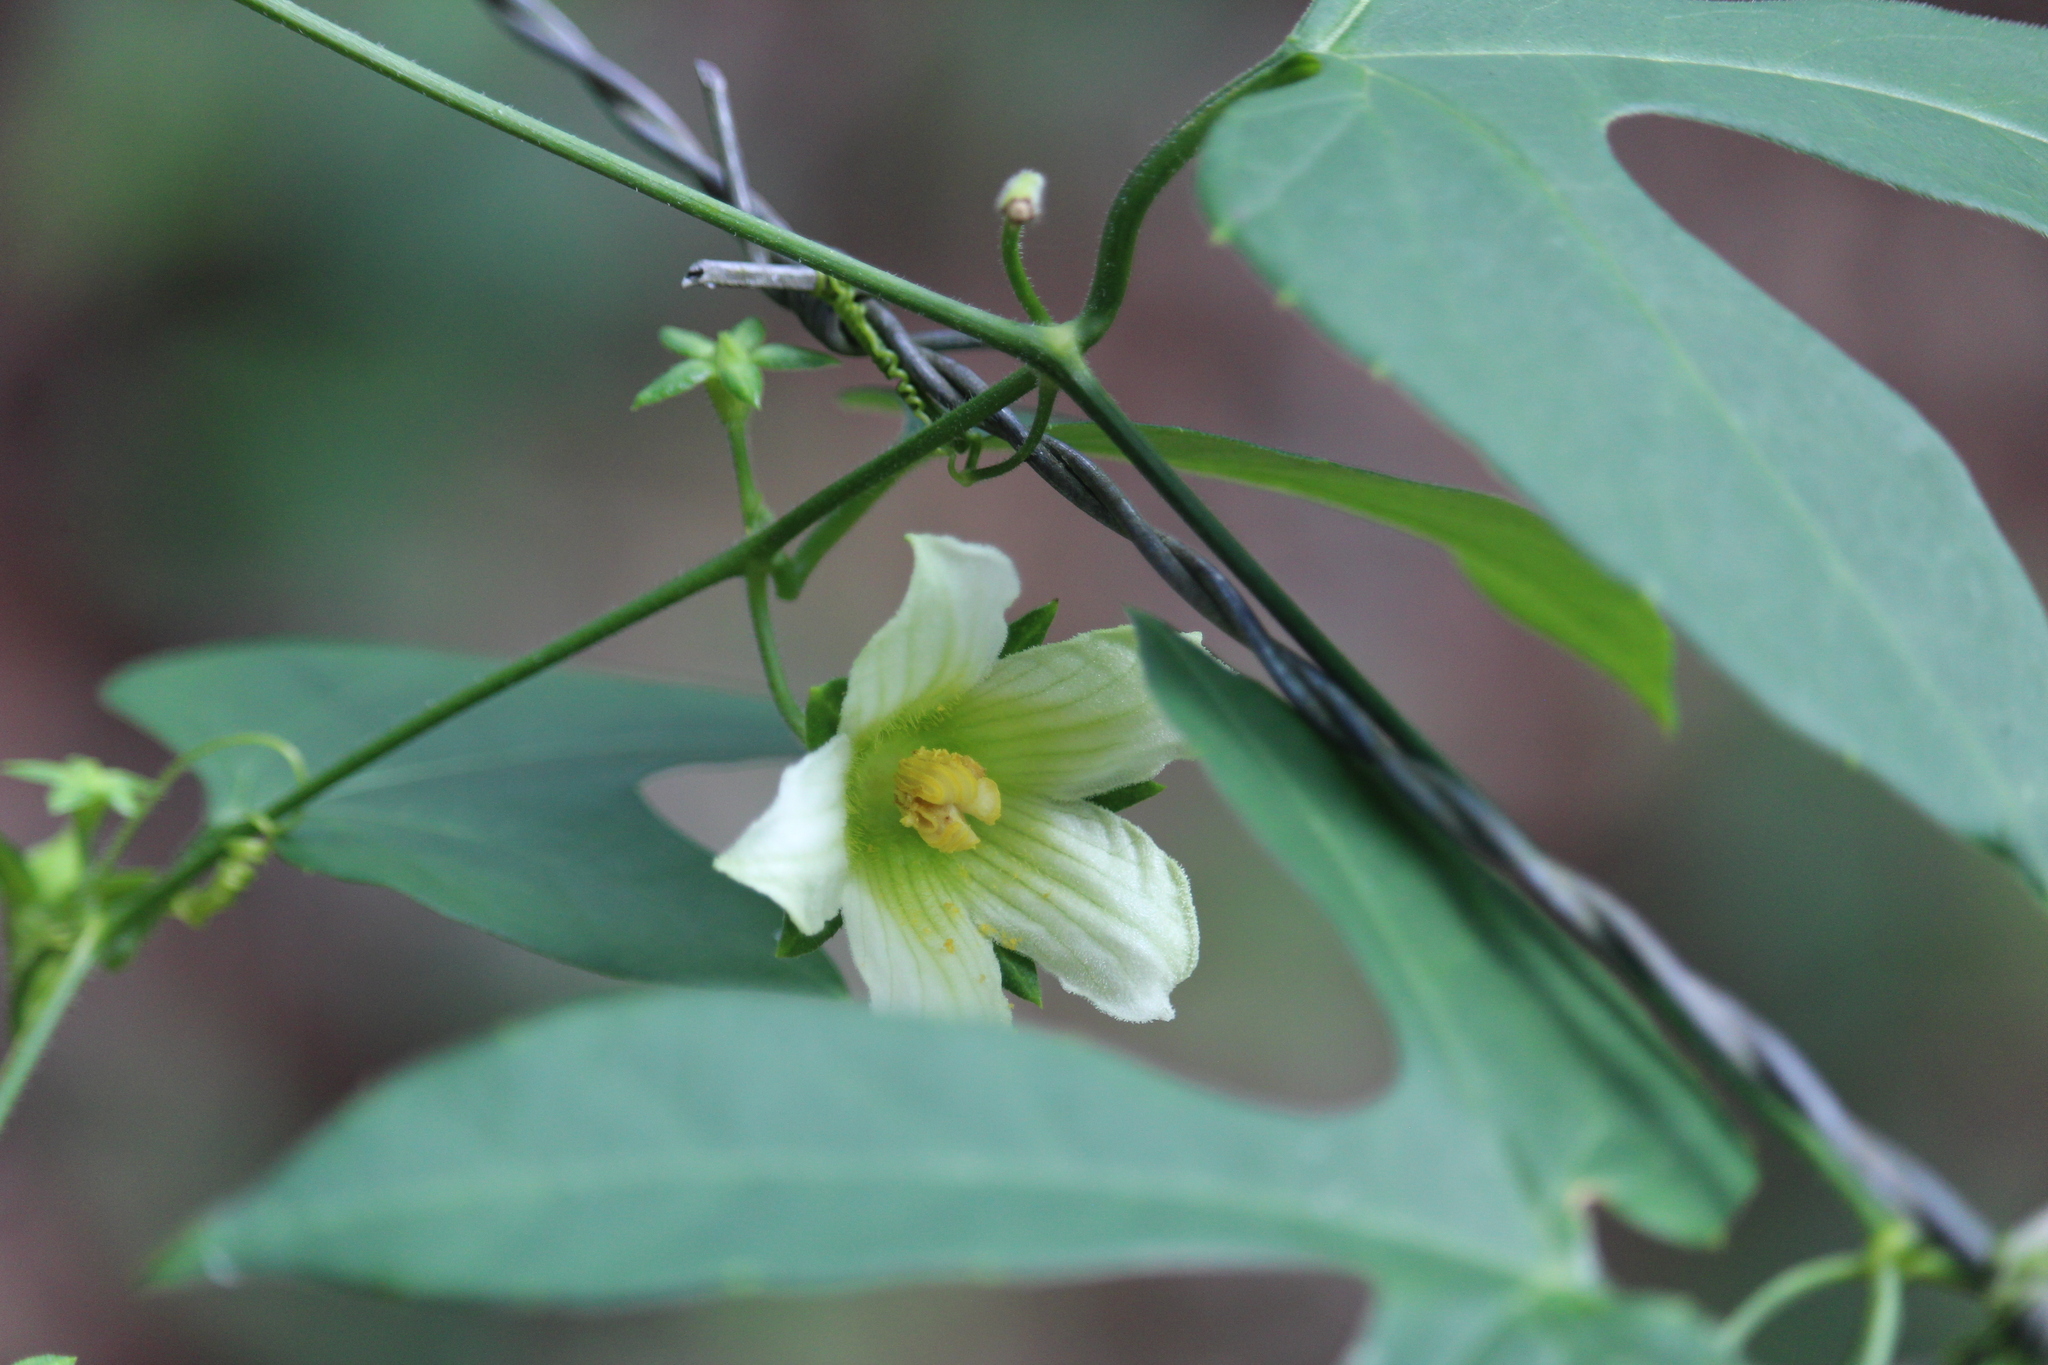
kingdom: Plantae
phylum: Tracheophyta
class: Magnoliopsida
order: Cucurbitales
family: Cucurbitaceae
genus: Cionosicys
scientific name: Cionosicys excisus
